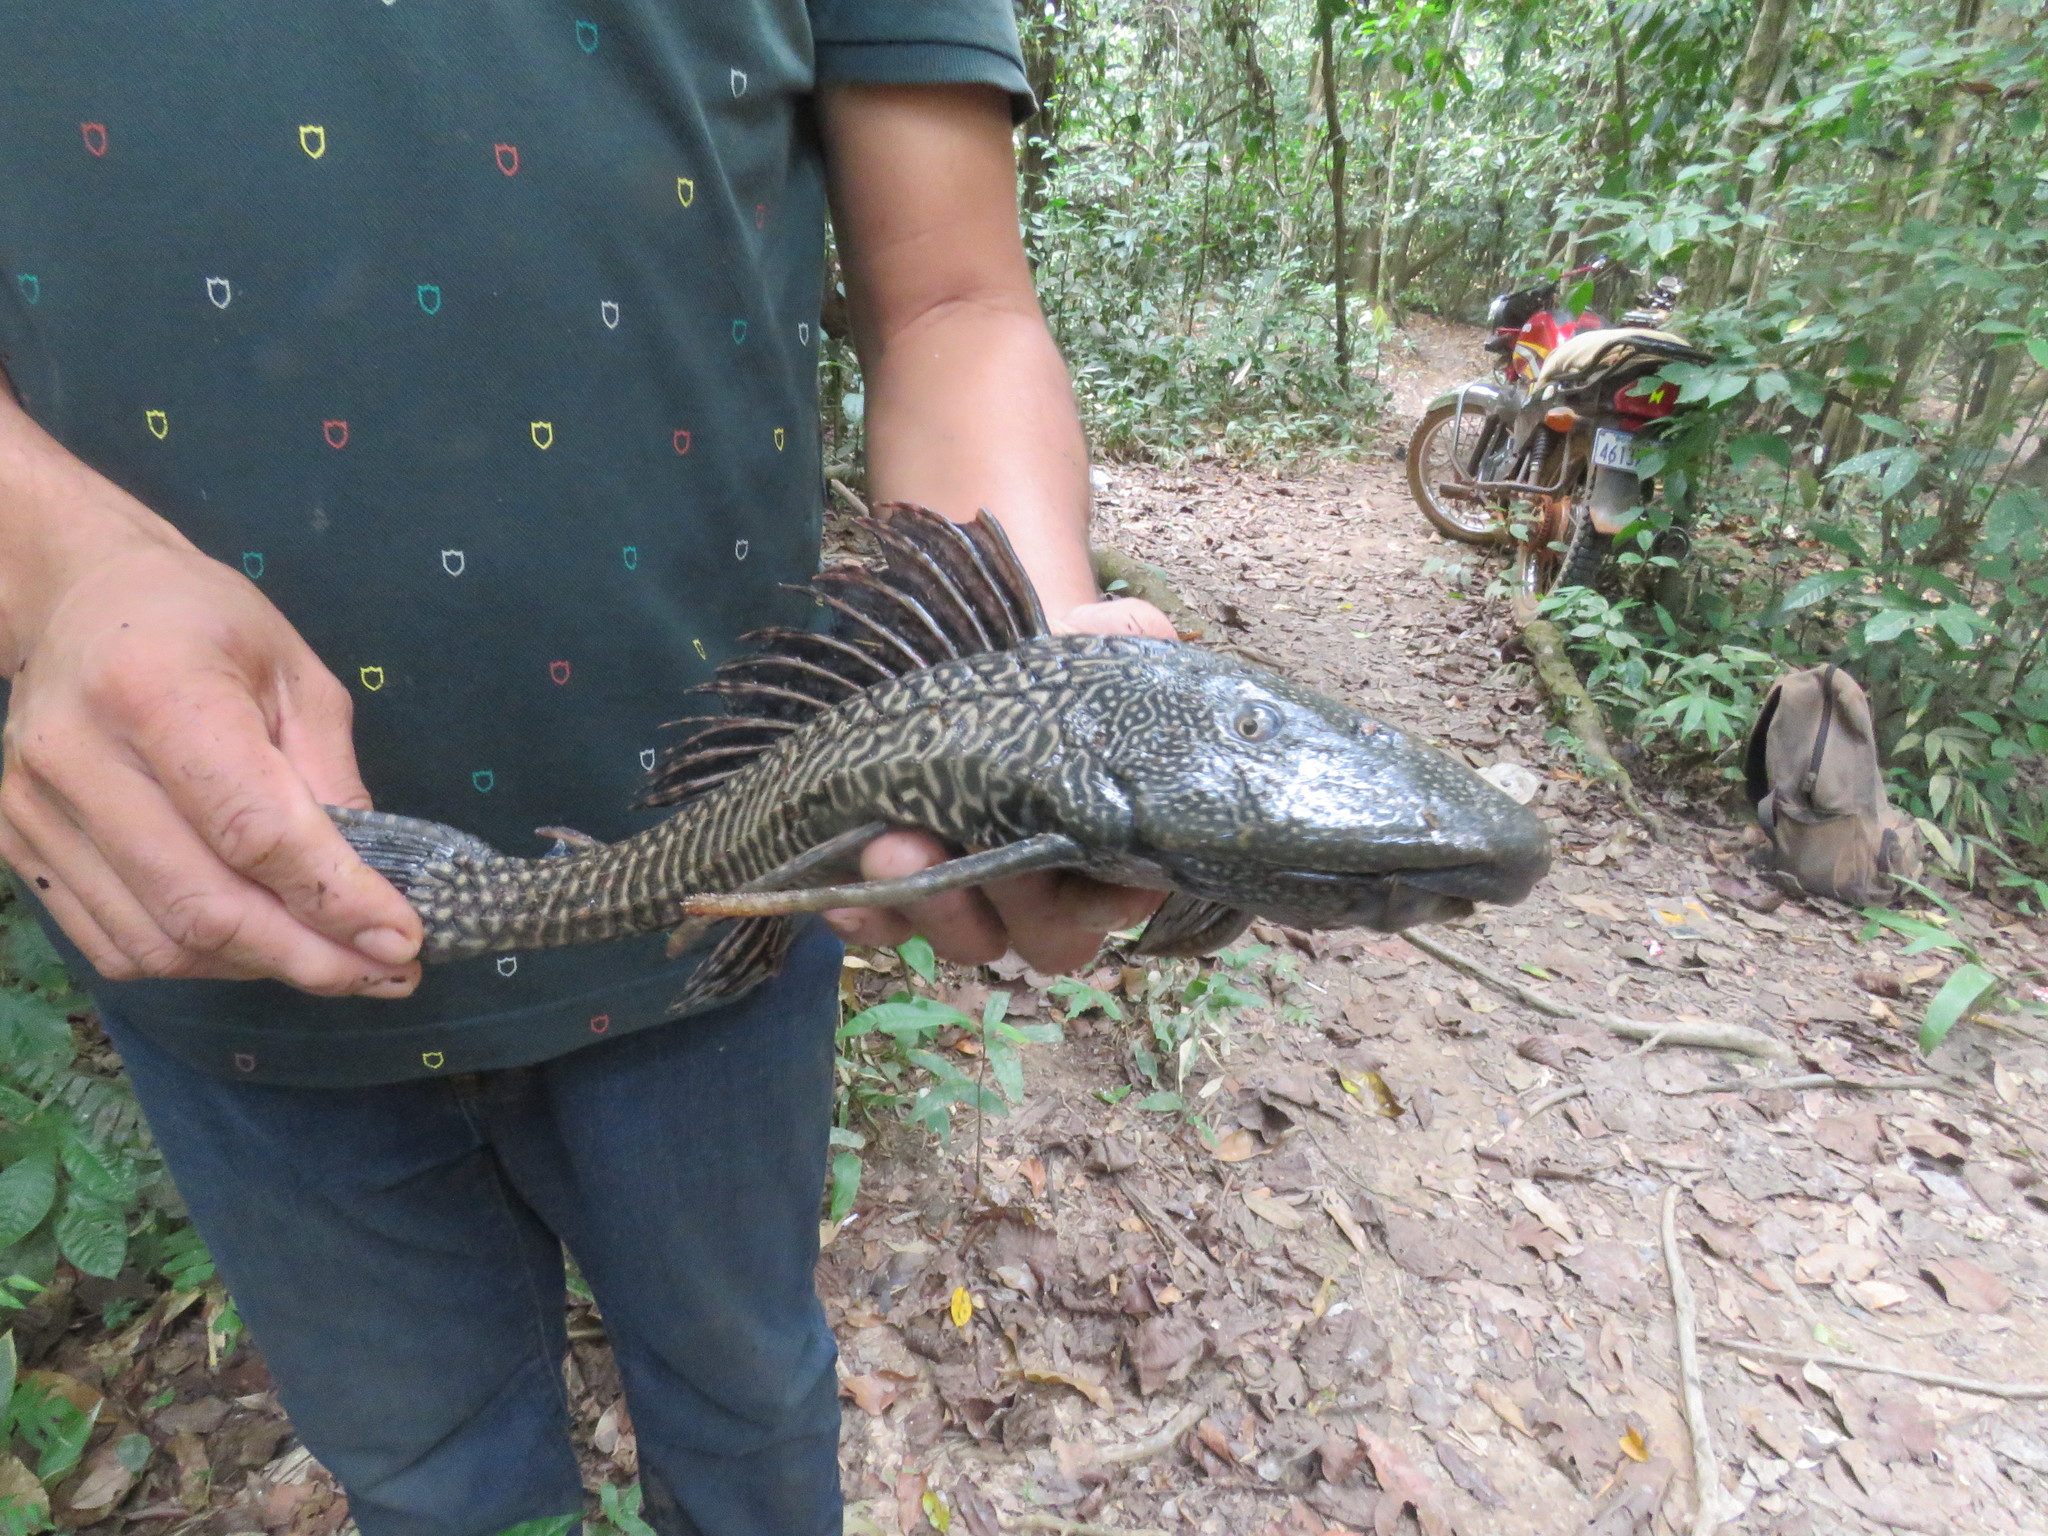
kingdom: Animalia
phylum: Chordata
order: Siluriformes
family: Loricariidae
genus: Pterygoplichthys
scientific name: Pterygoplichthys disjunctivus
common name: Vermiculated sailfin catfish
